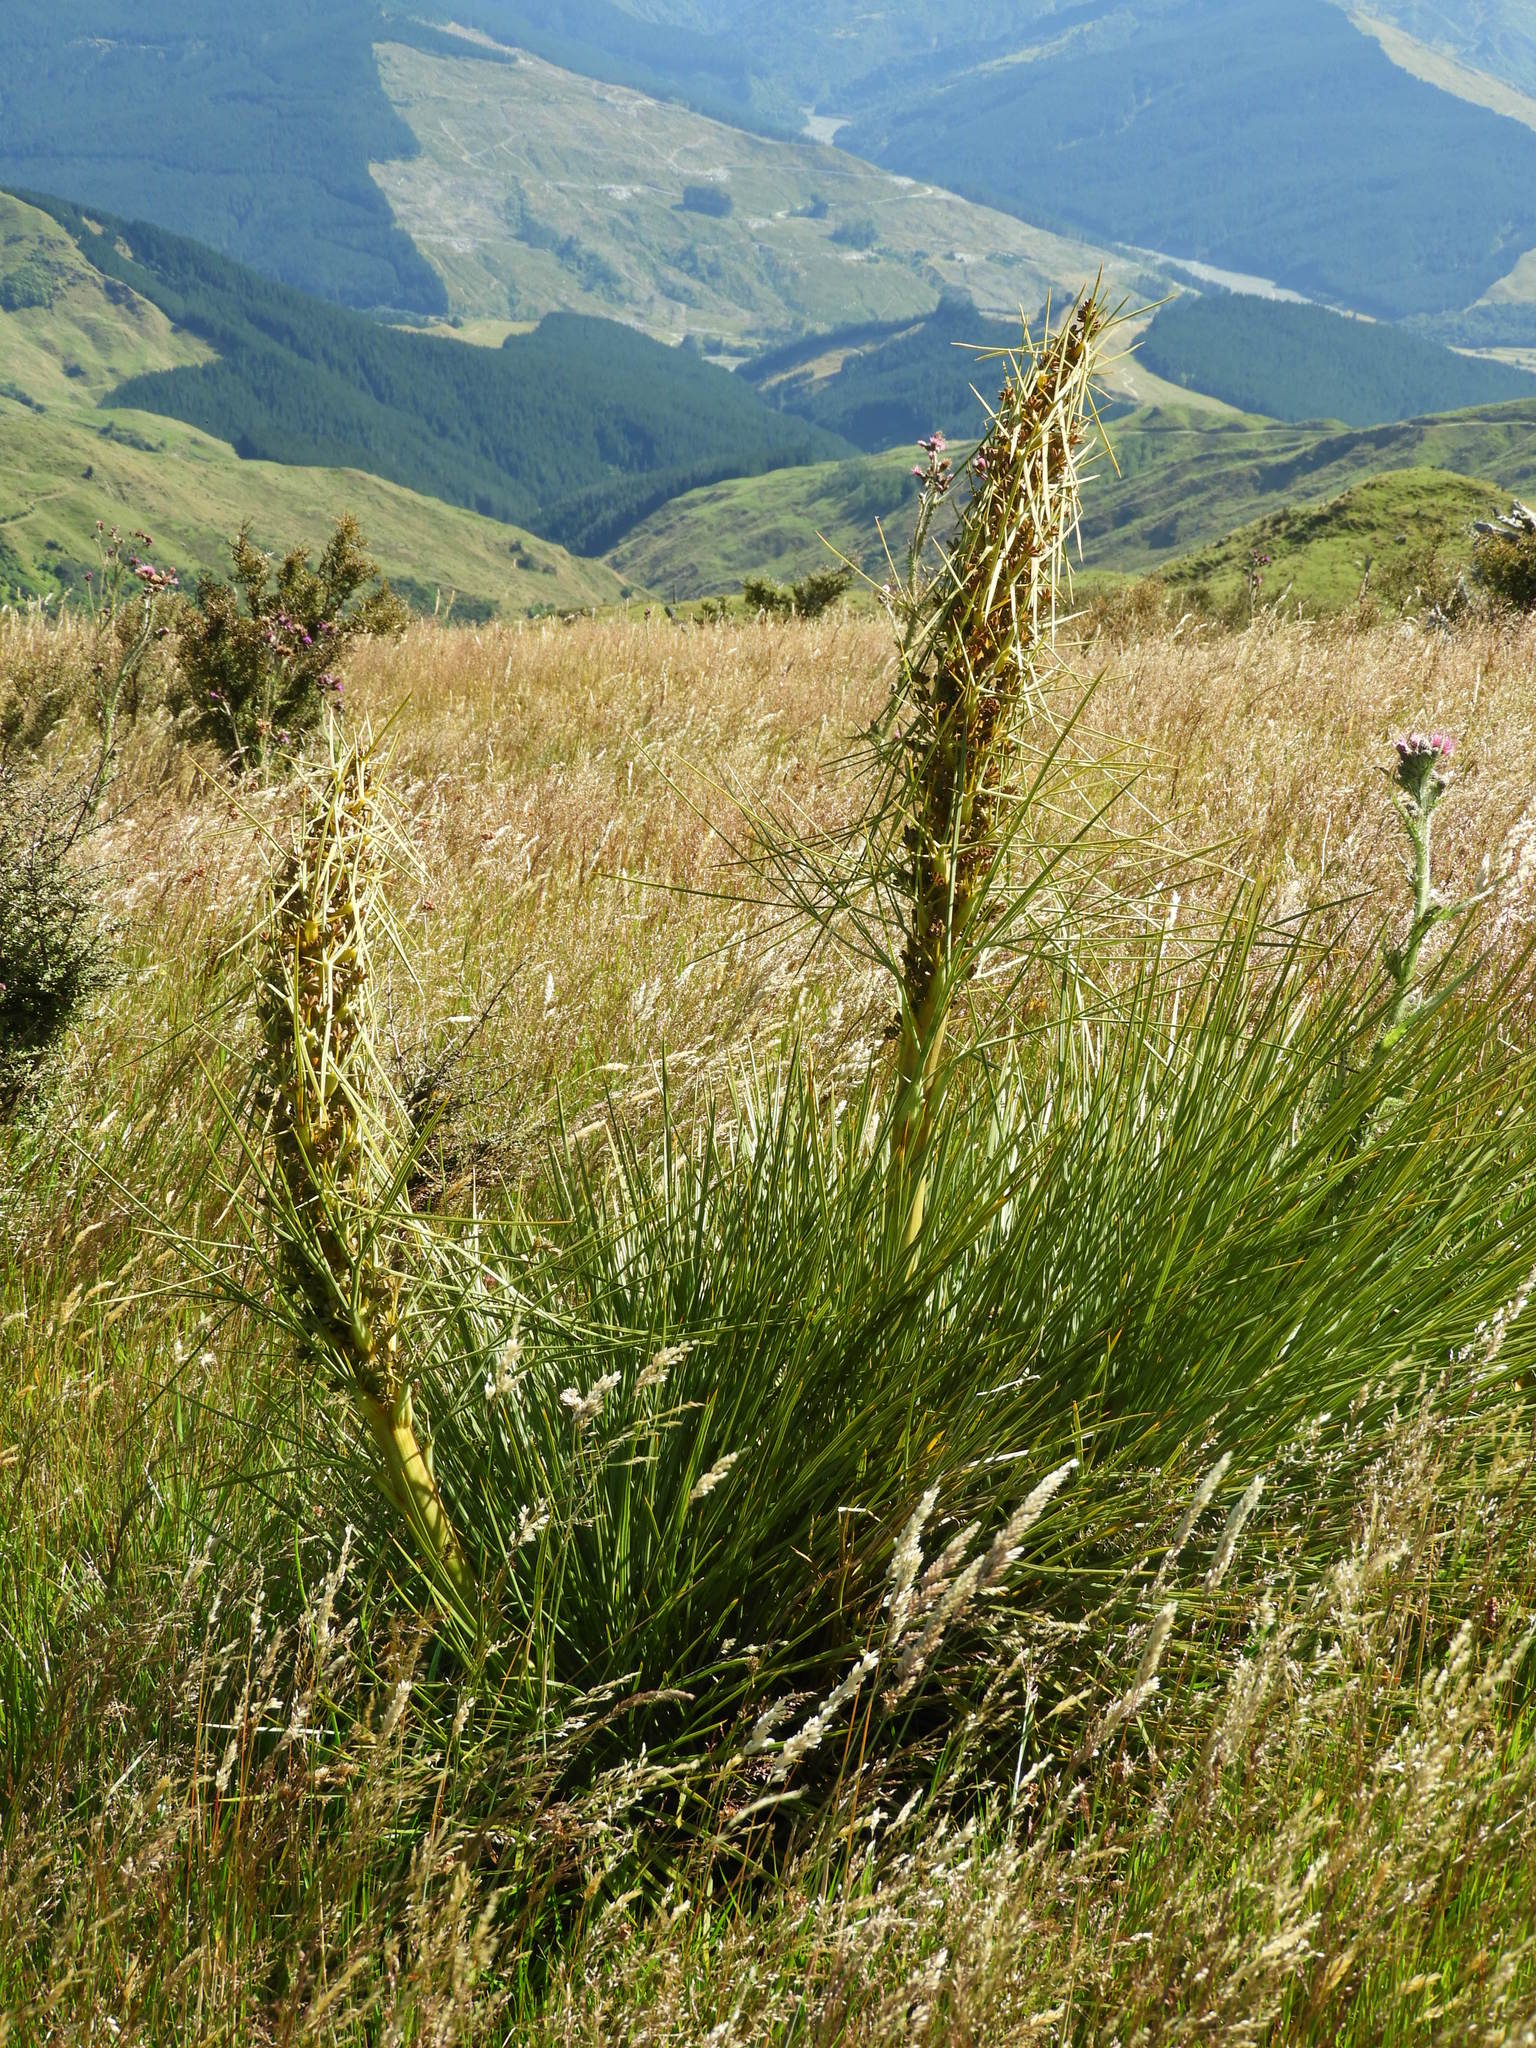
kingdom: Plantae
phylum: Tracheophyta
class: Magnoliopsida
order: Apiales
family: Apiaceae
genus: Aciphylla
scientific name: Aciphylla squarrosa
